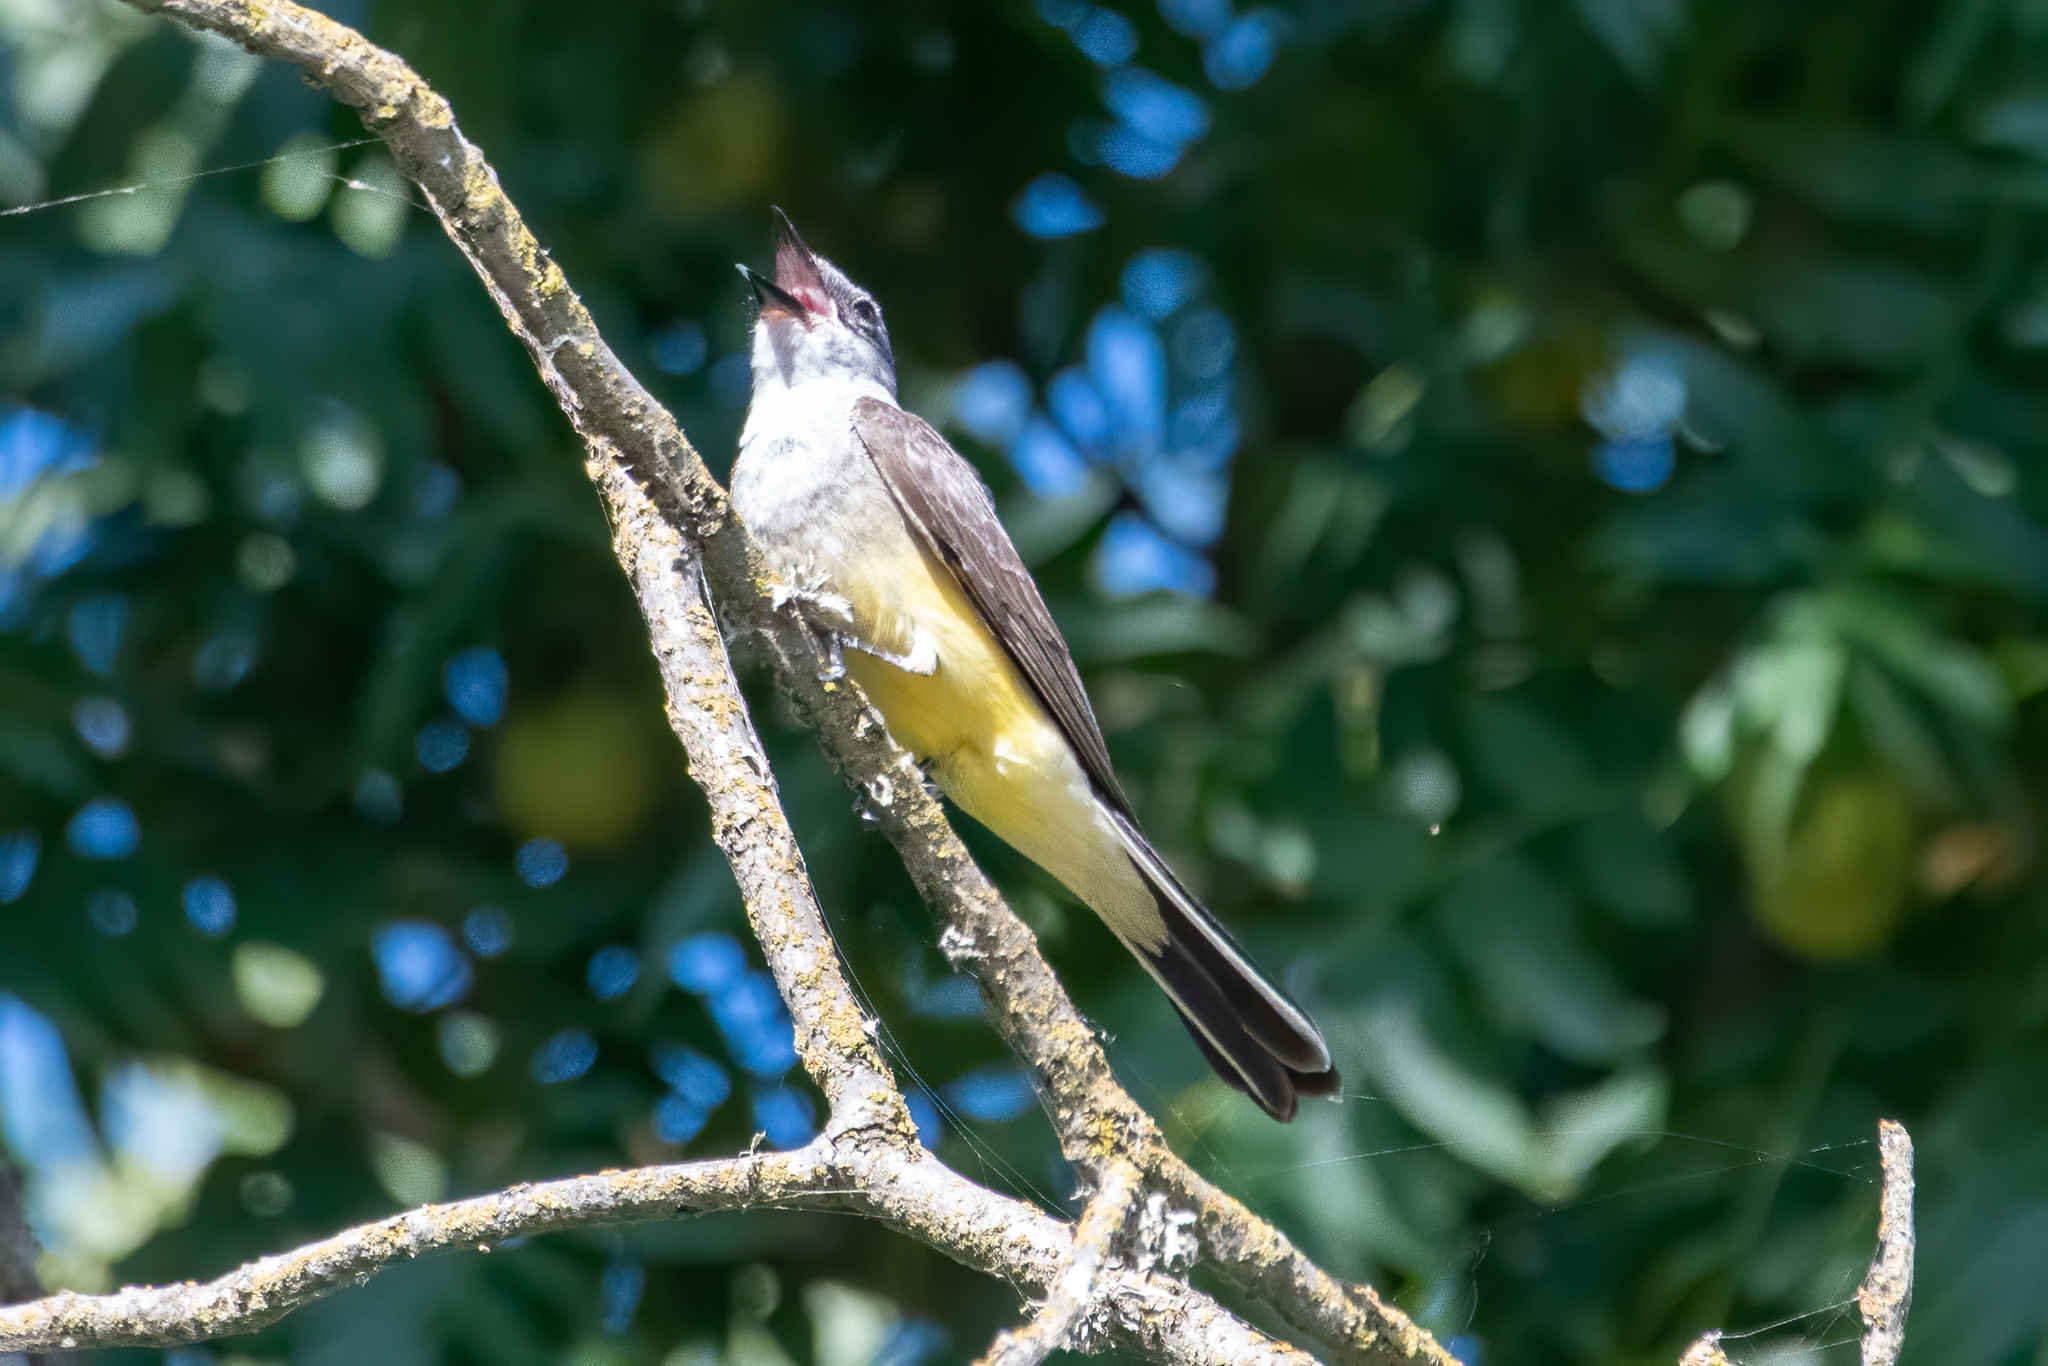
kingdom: Animalia
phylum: Chordata
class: Aves
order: Passeriformes
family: Tyrannidae
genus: Tyrannus
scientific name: Tyrannus verticalis
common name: Western kingbird
